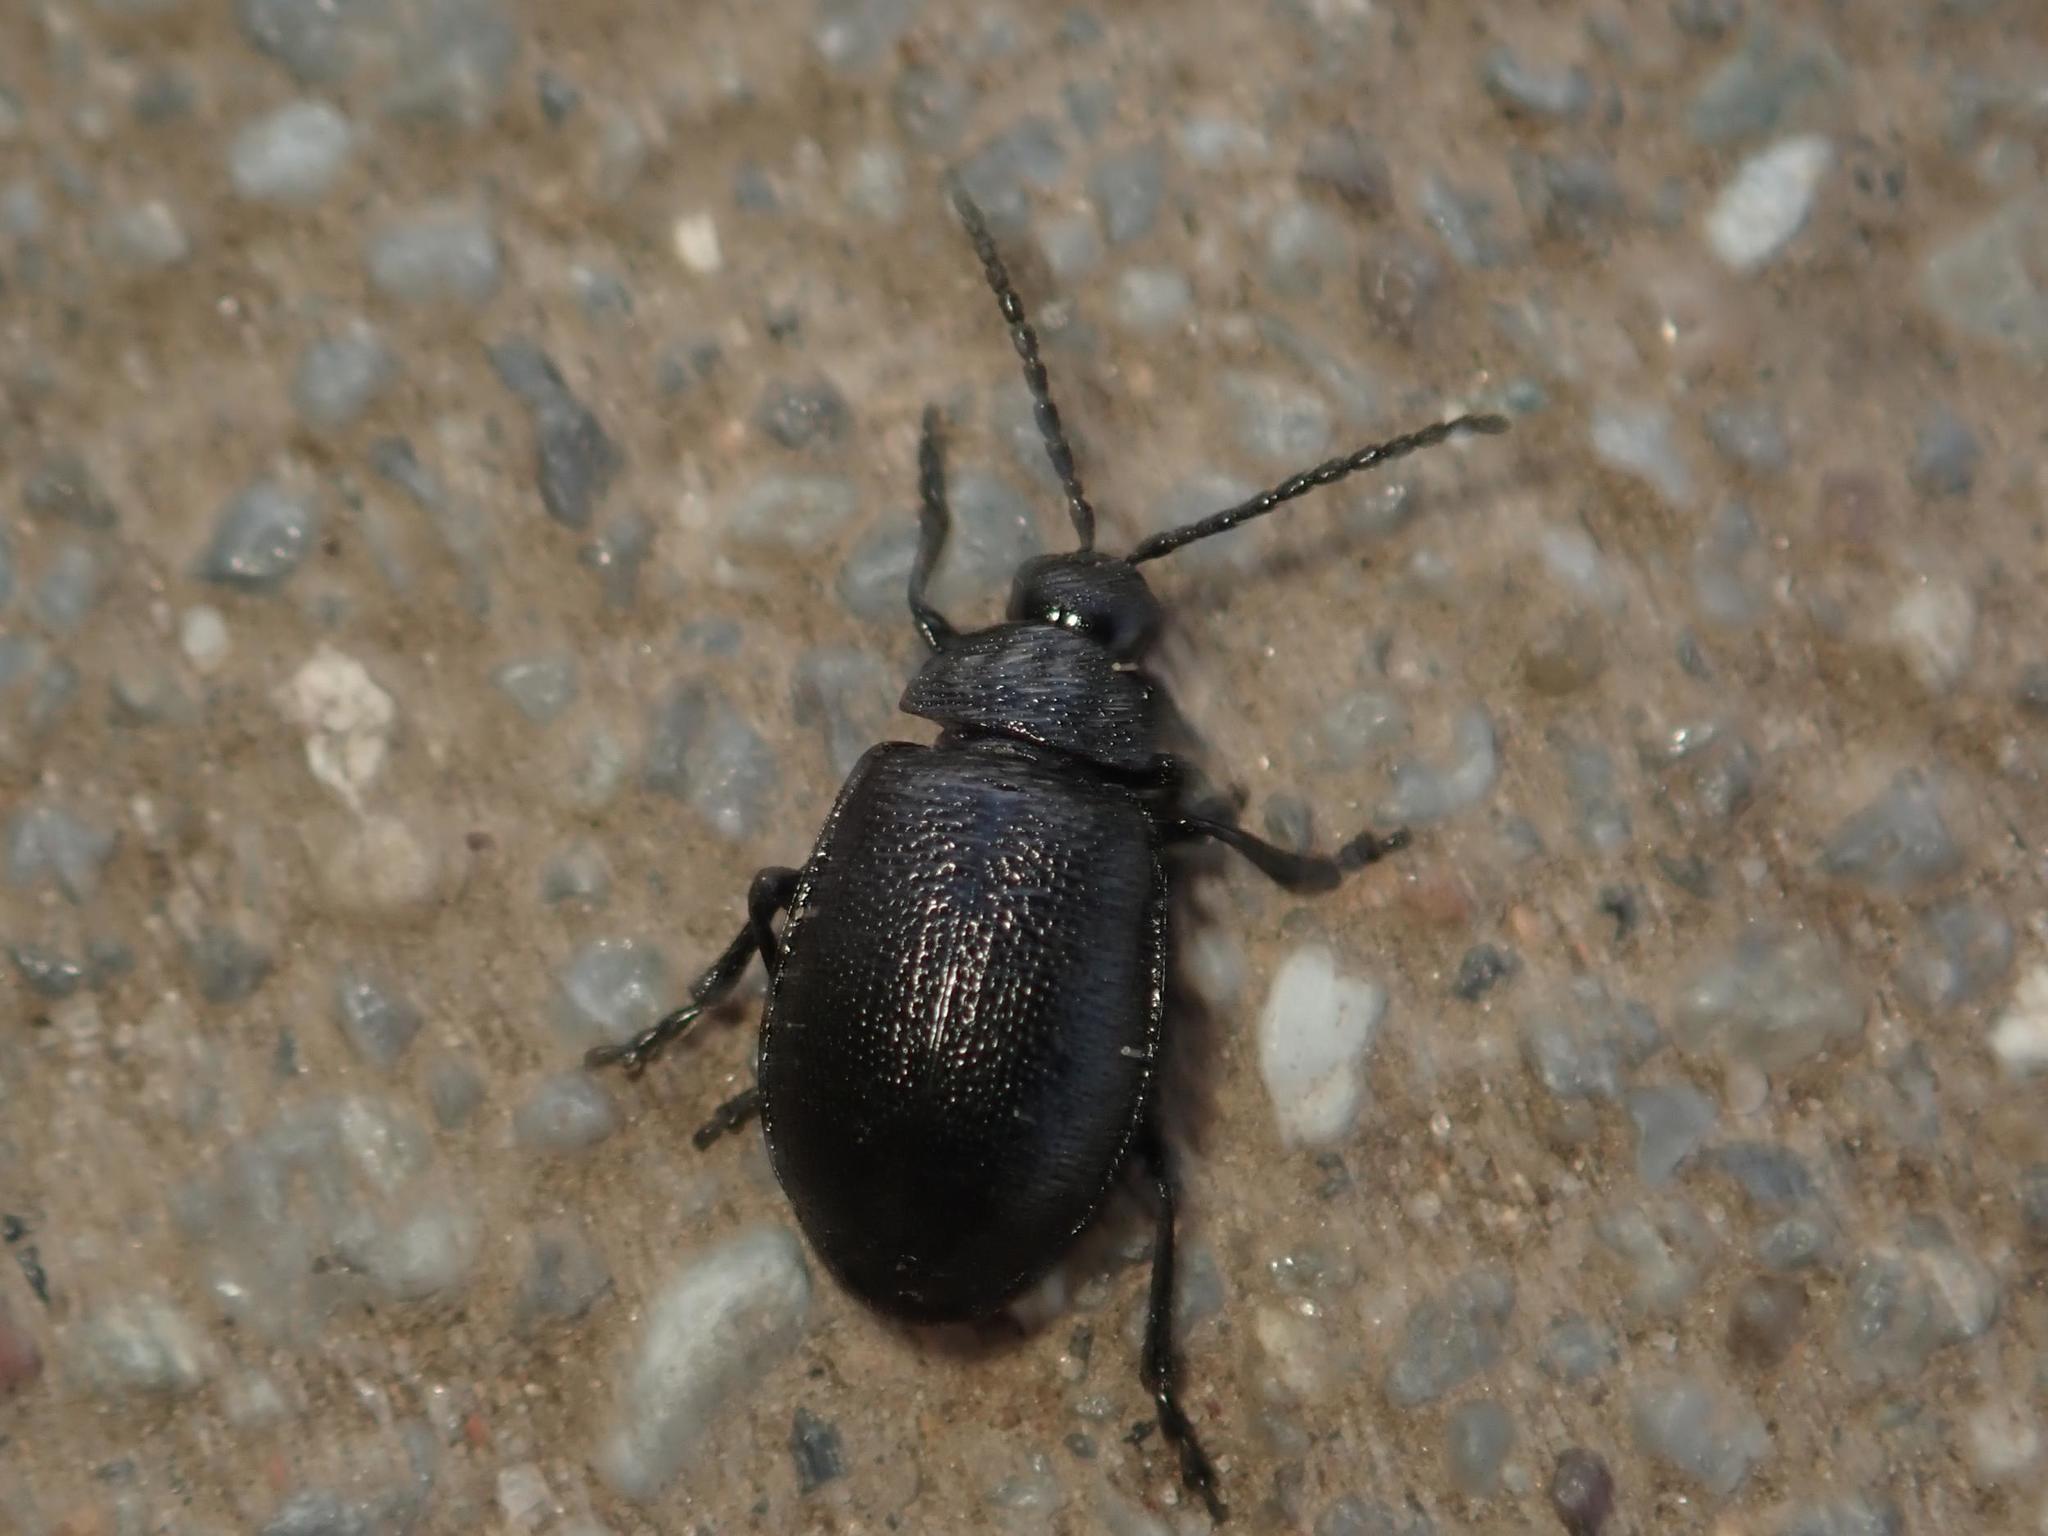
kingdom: Animalia
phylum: Arthropoda
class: Insecta
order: Coleoptera
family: Chrysomelidae
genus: Galeruca
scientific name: Galeruca tanaceti
